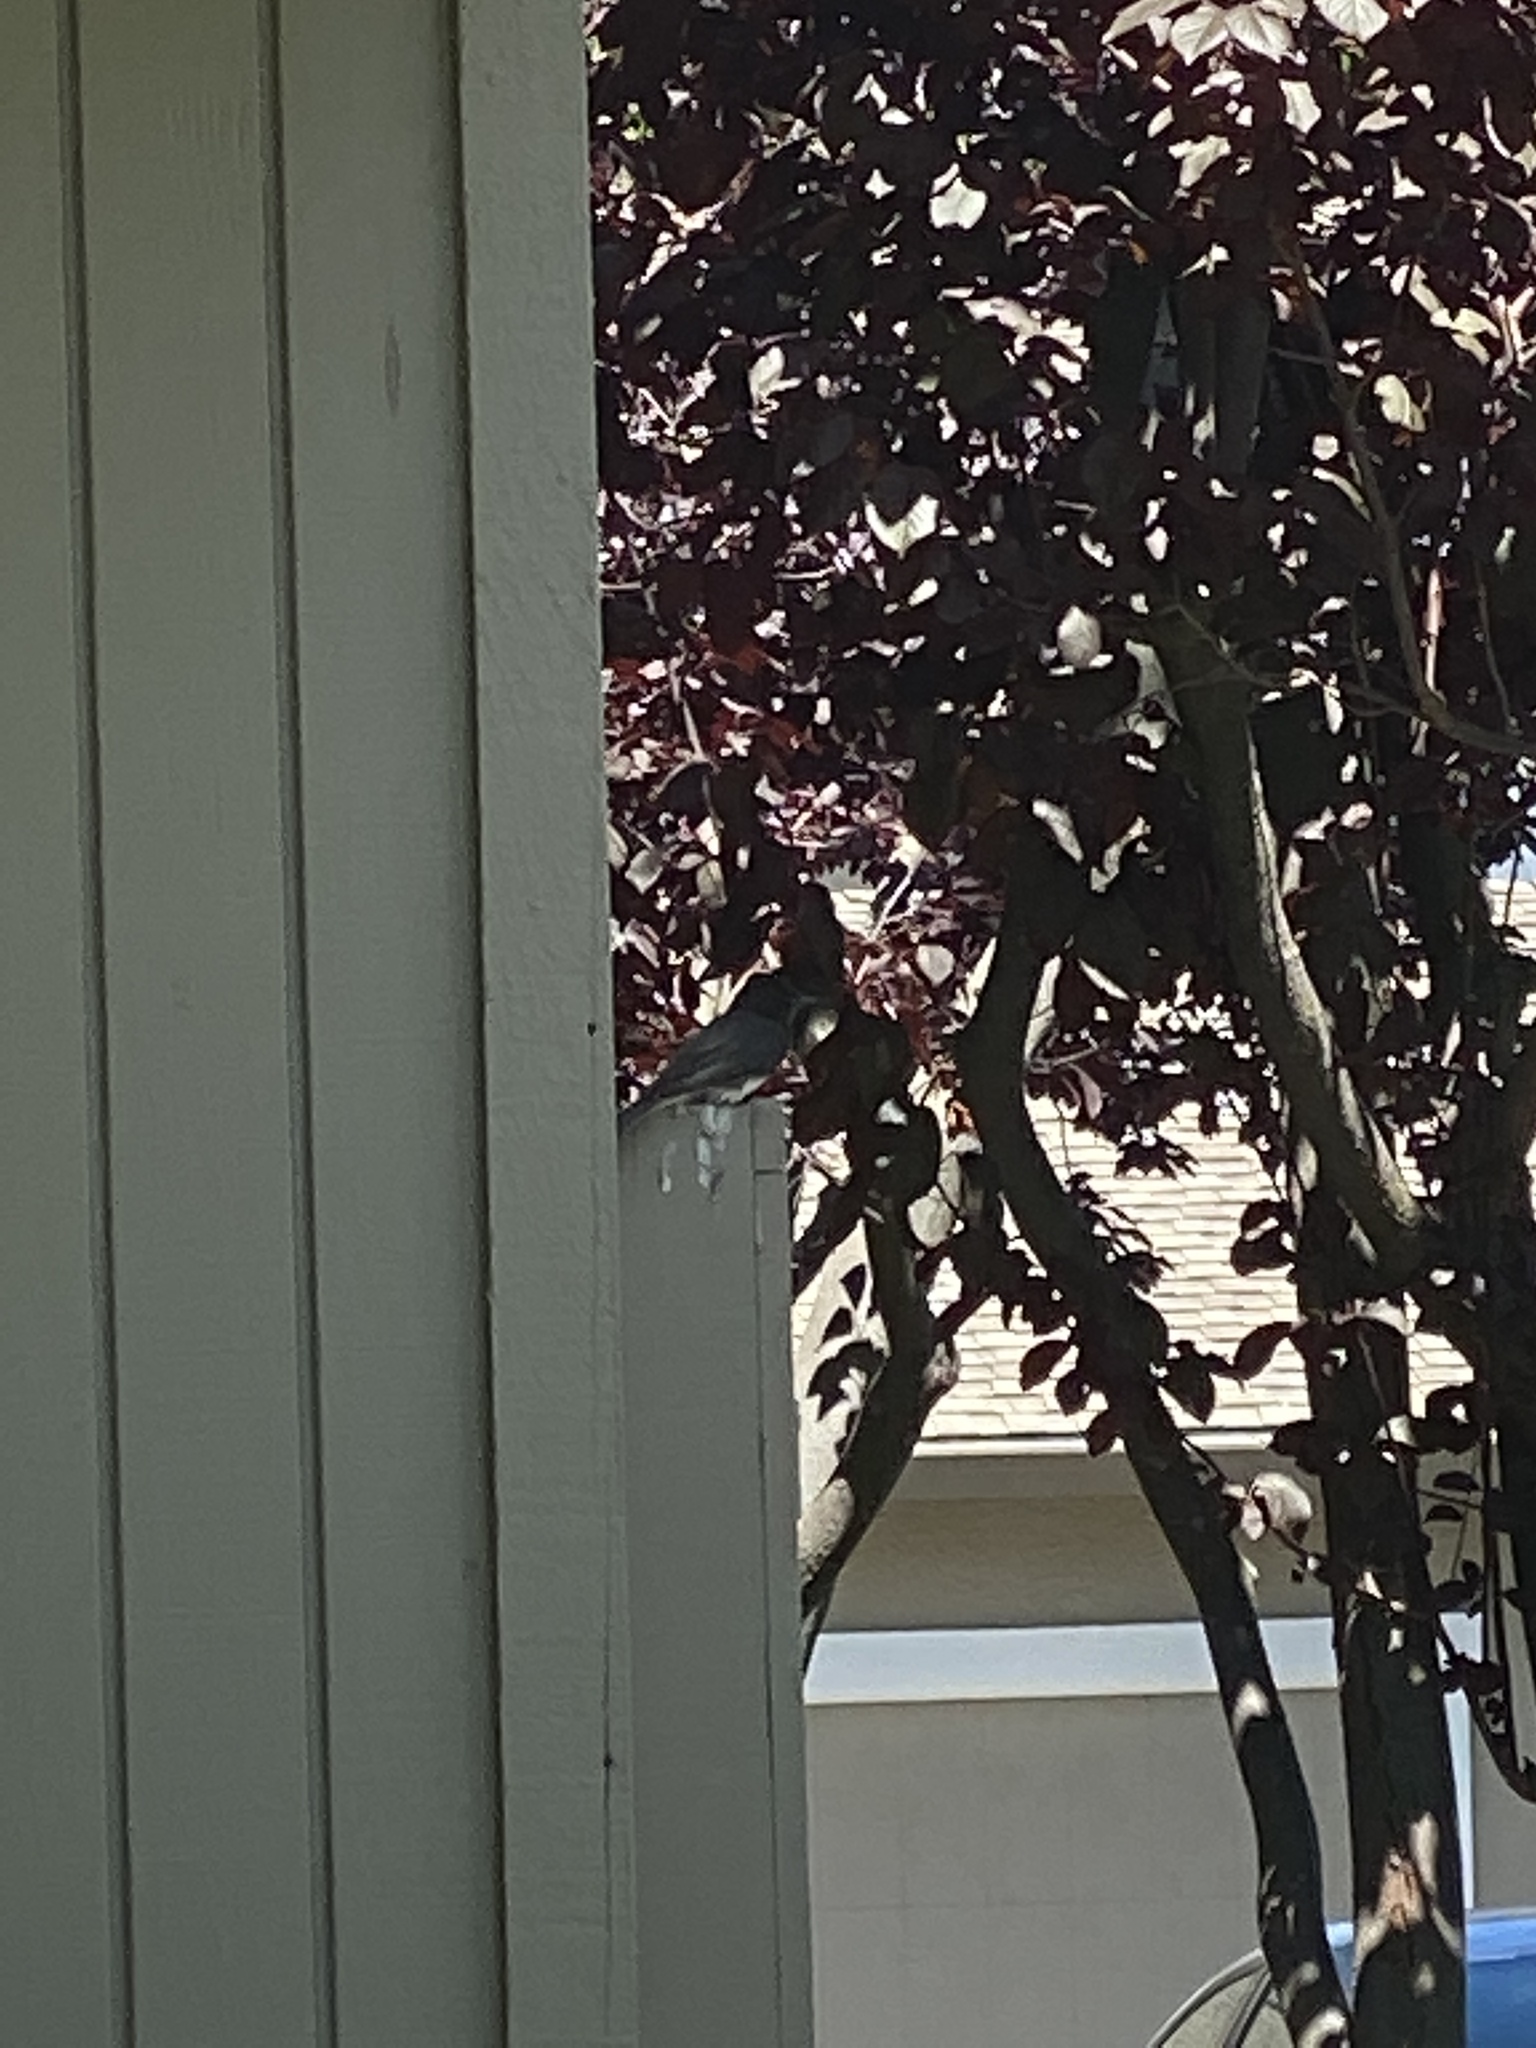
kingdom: Animalia
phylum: Chordata
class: Aves
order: Passeriformes
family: Tyrannidae
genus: Sayornis
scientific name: Sayornis nigricans
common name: Black phoebe
